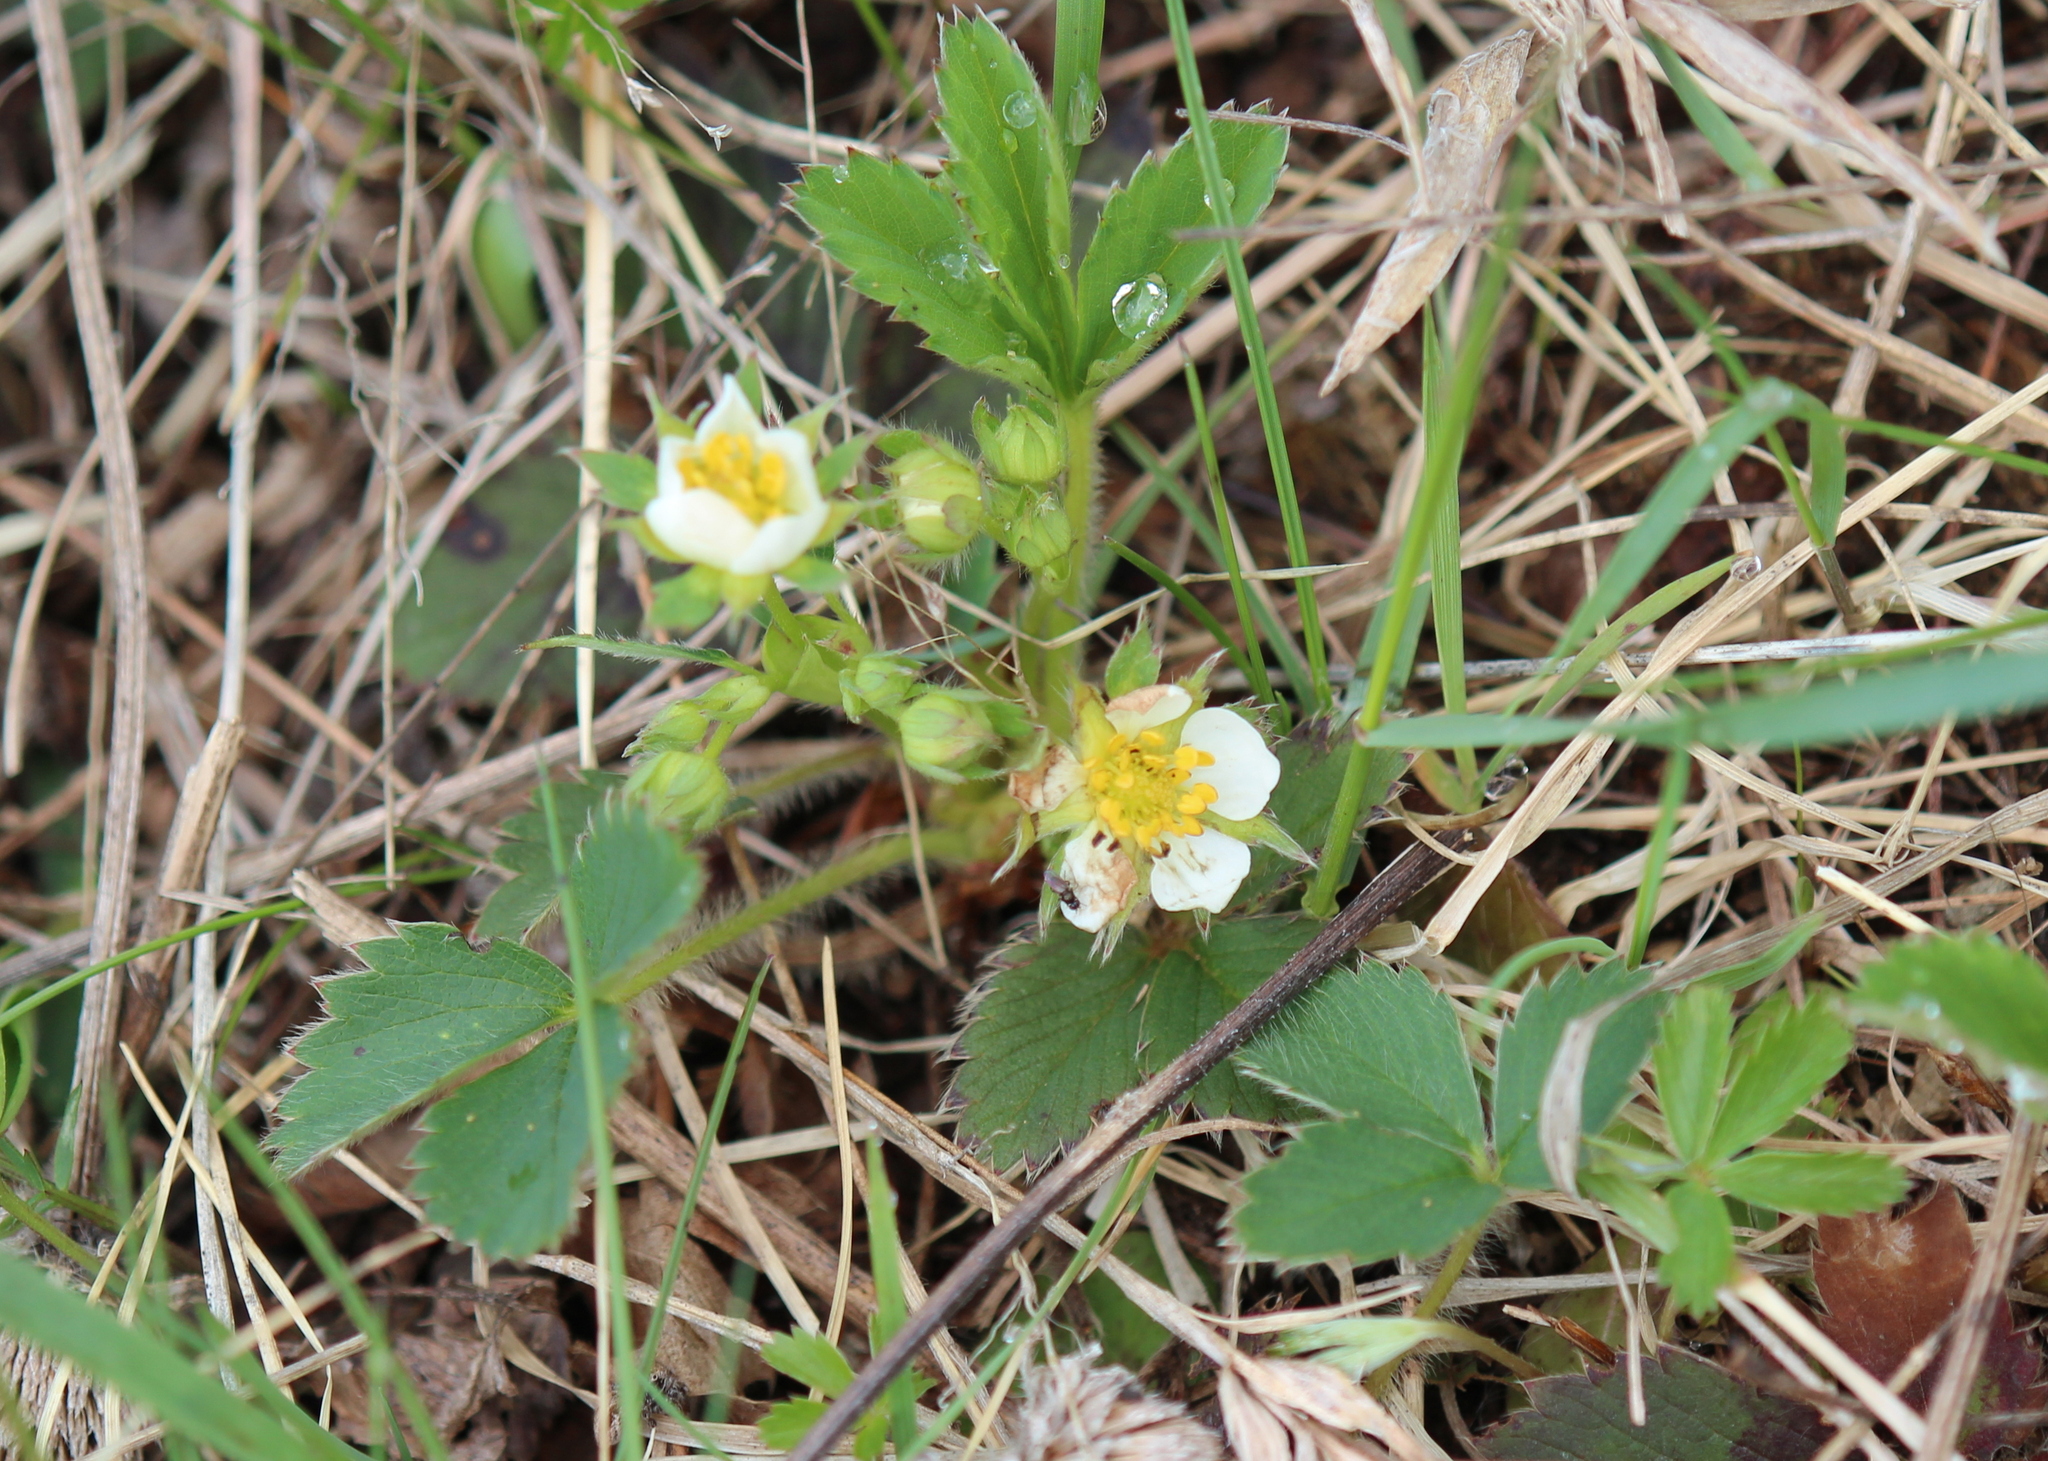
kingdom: Plantae
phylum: Tracheophyta
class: Magnoliopsida
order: Rosales
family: Rosaceae
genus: Fragaria
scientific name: Fragaria virginiana
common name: Thickleaved wild strawberry
